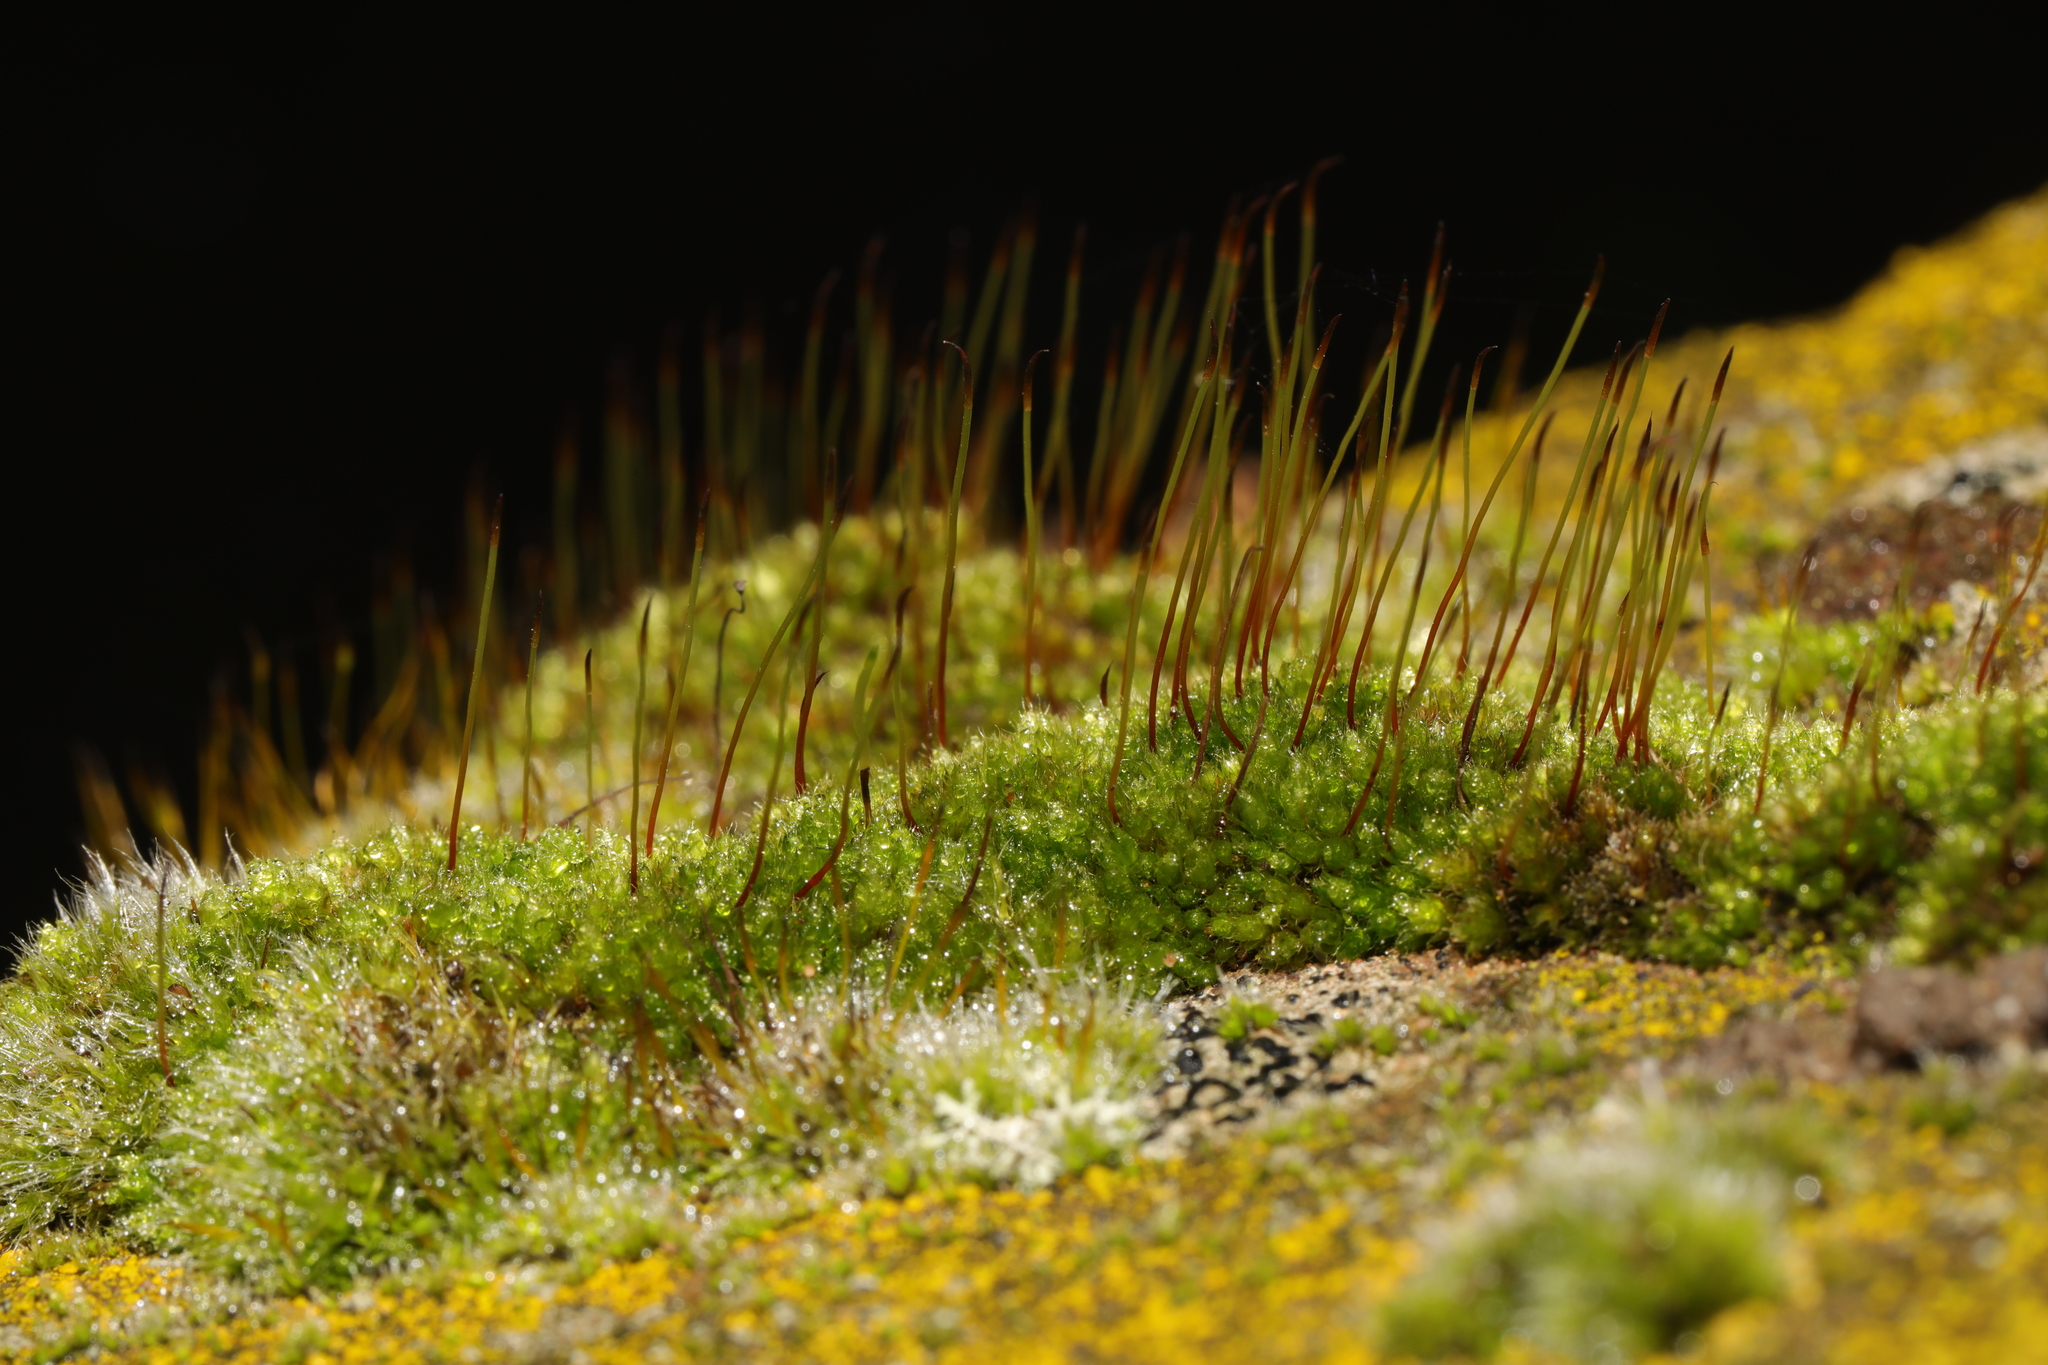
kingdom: Plantae
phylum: Bryophyta
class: Bryopsida
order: Bryales
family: Bryaceae
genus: Rosulabryum
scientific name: Rosulabryum capillare
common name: Capillary thread-moss
